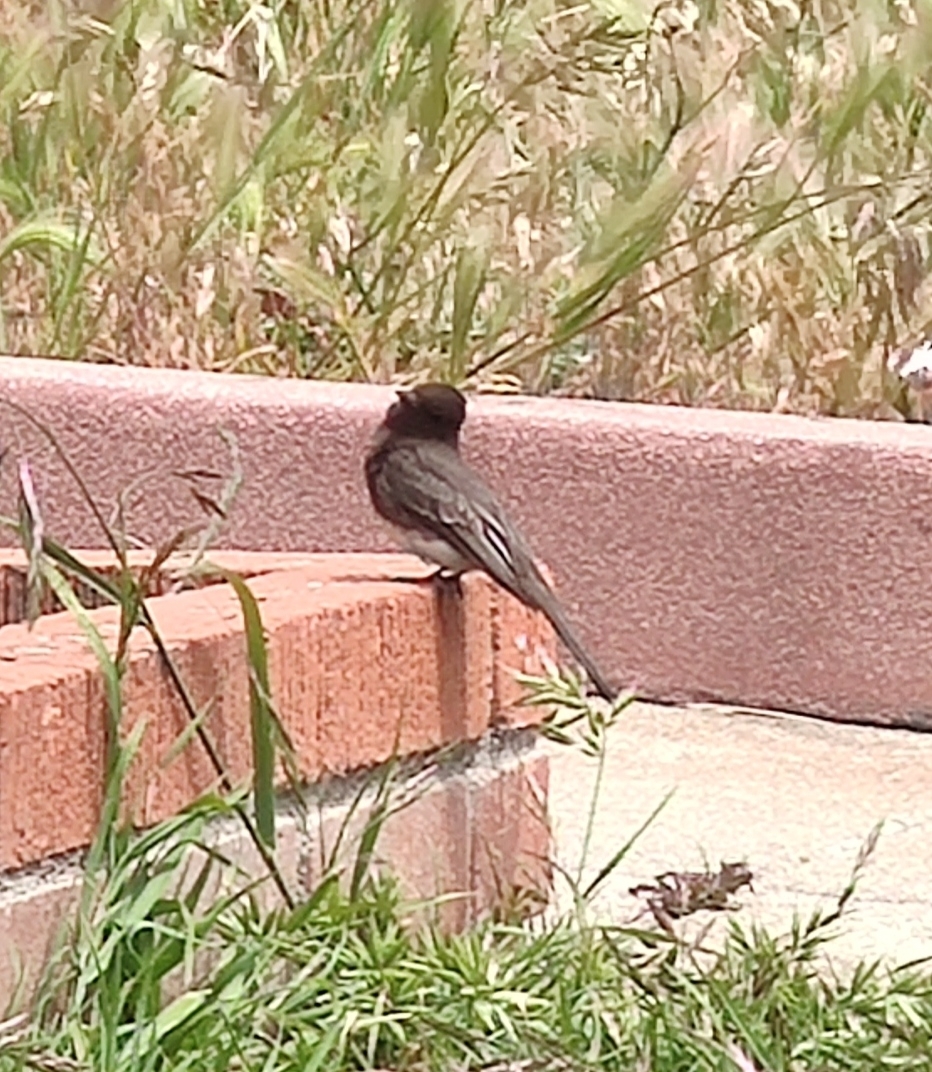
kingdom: Animalia
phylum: Chordata
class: Aves
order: Passeriformes
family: Tyrannidae
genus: Sayornis
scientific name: Sayornis nigricans
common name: Black phoebe
